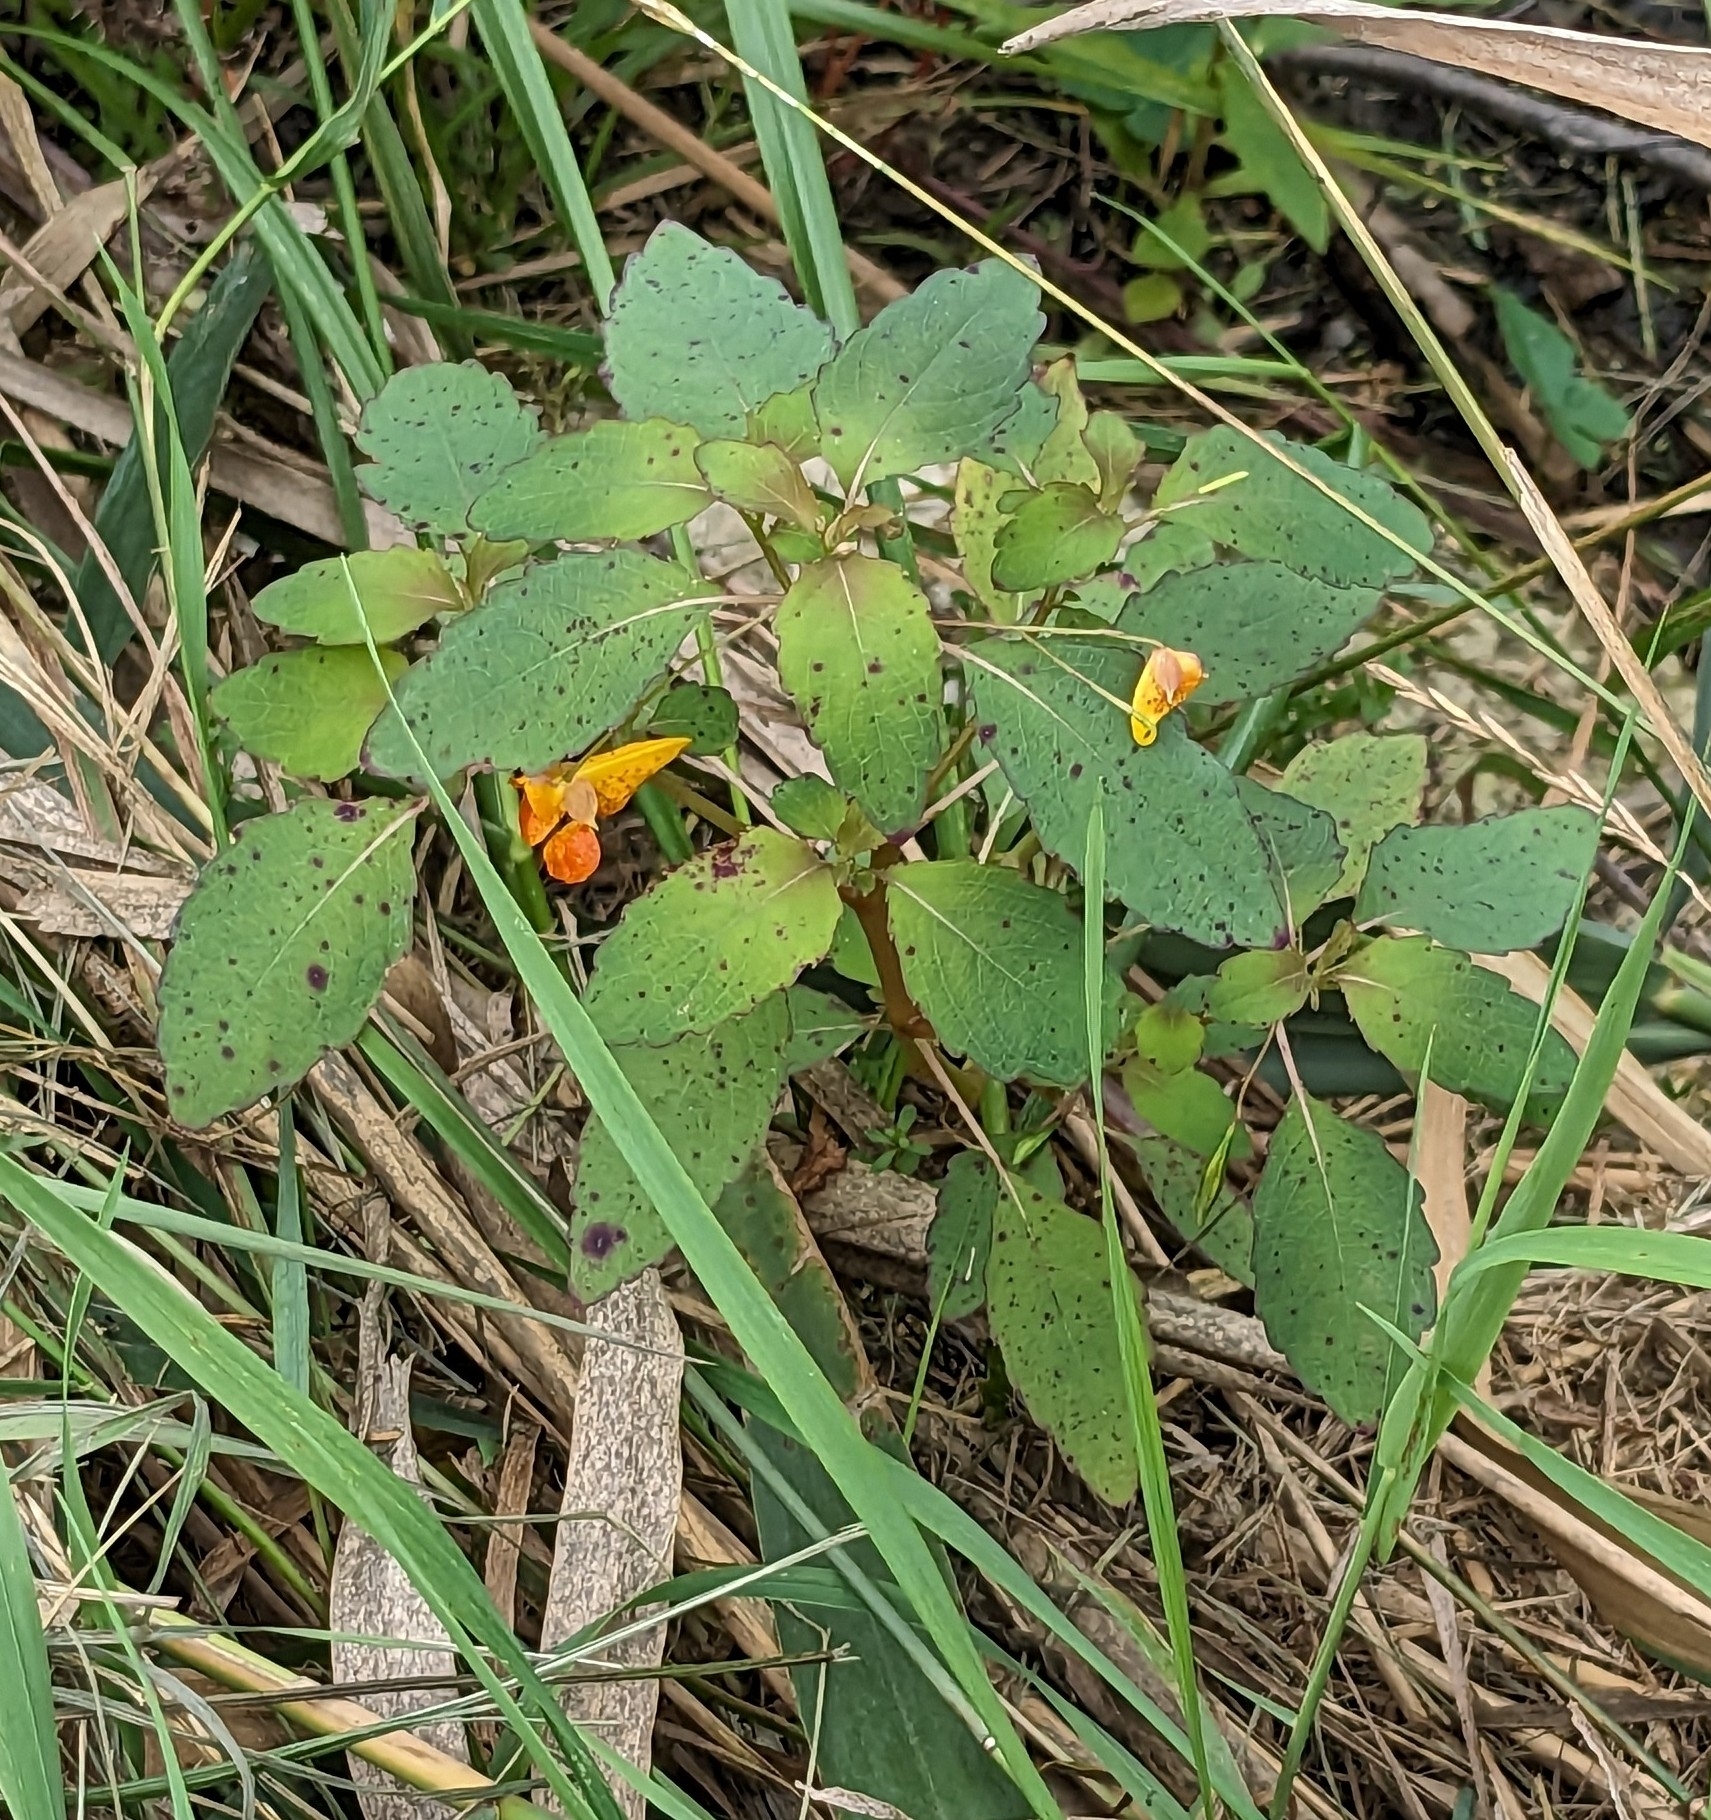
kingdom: Plantae
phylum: Tracheophyta
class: Magnoliopsida
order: Ericales
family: Balsaminaceae
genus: Impatiens
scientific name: Impatiens capensis
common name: Orange balsam
